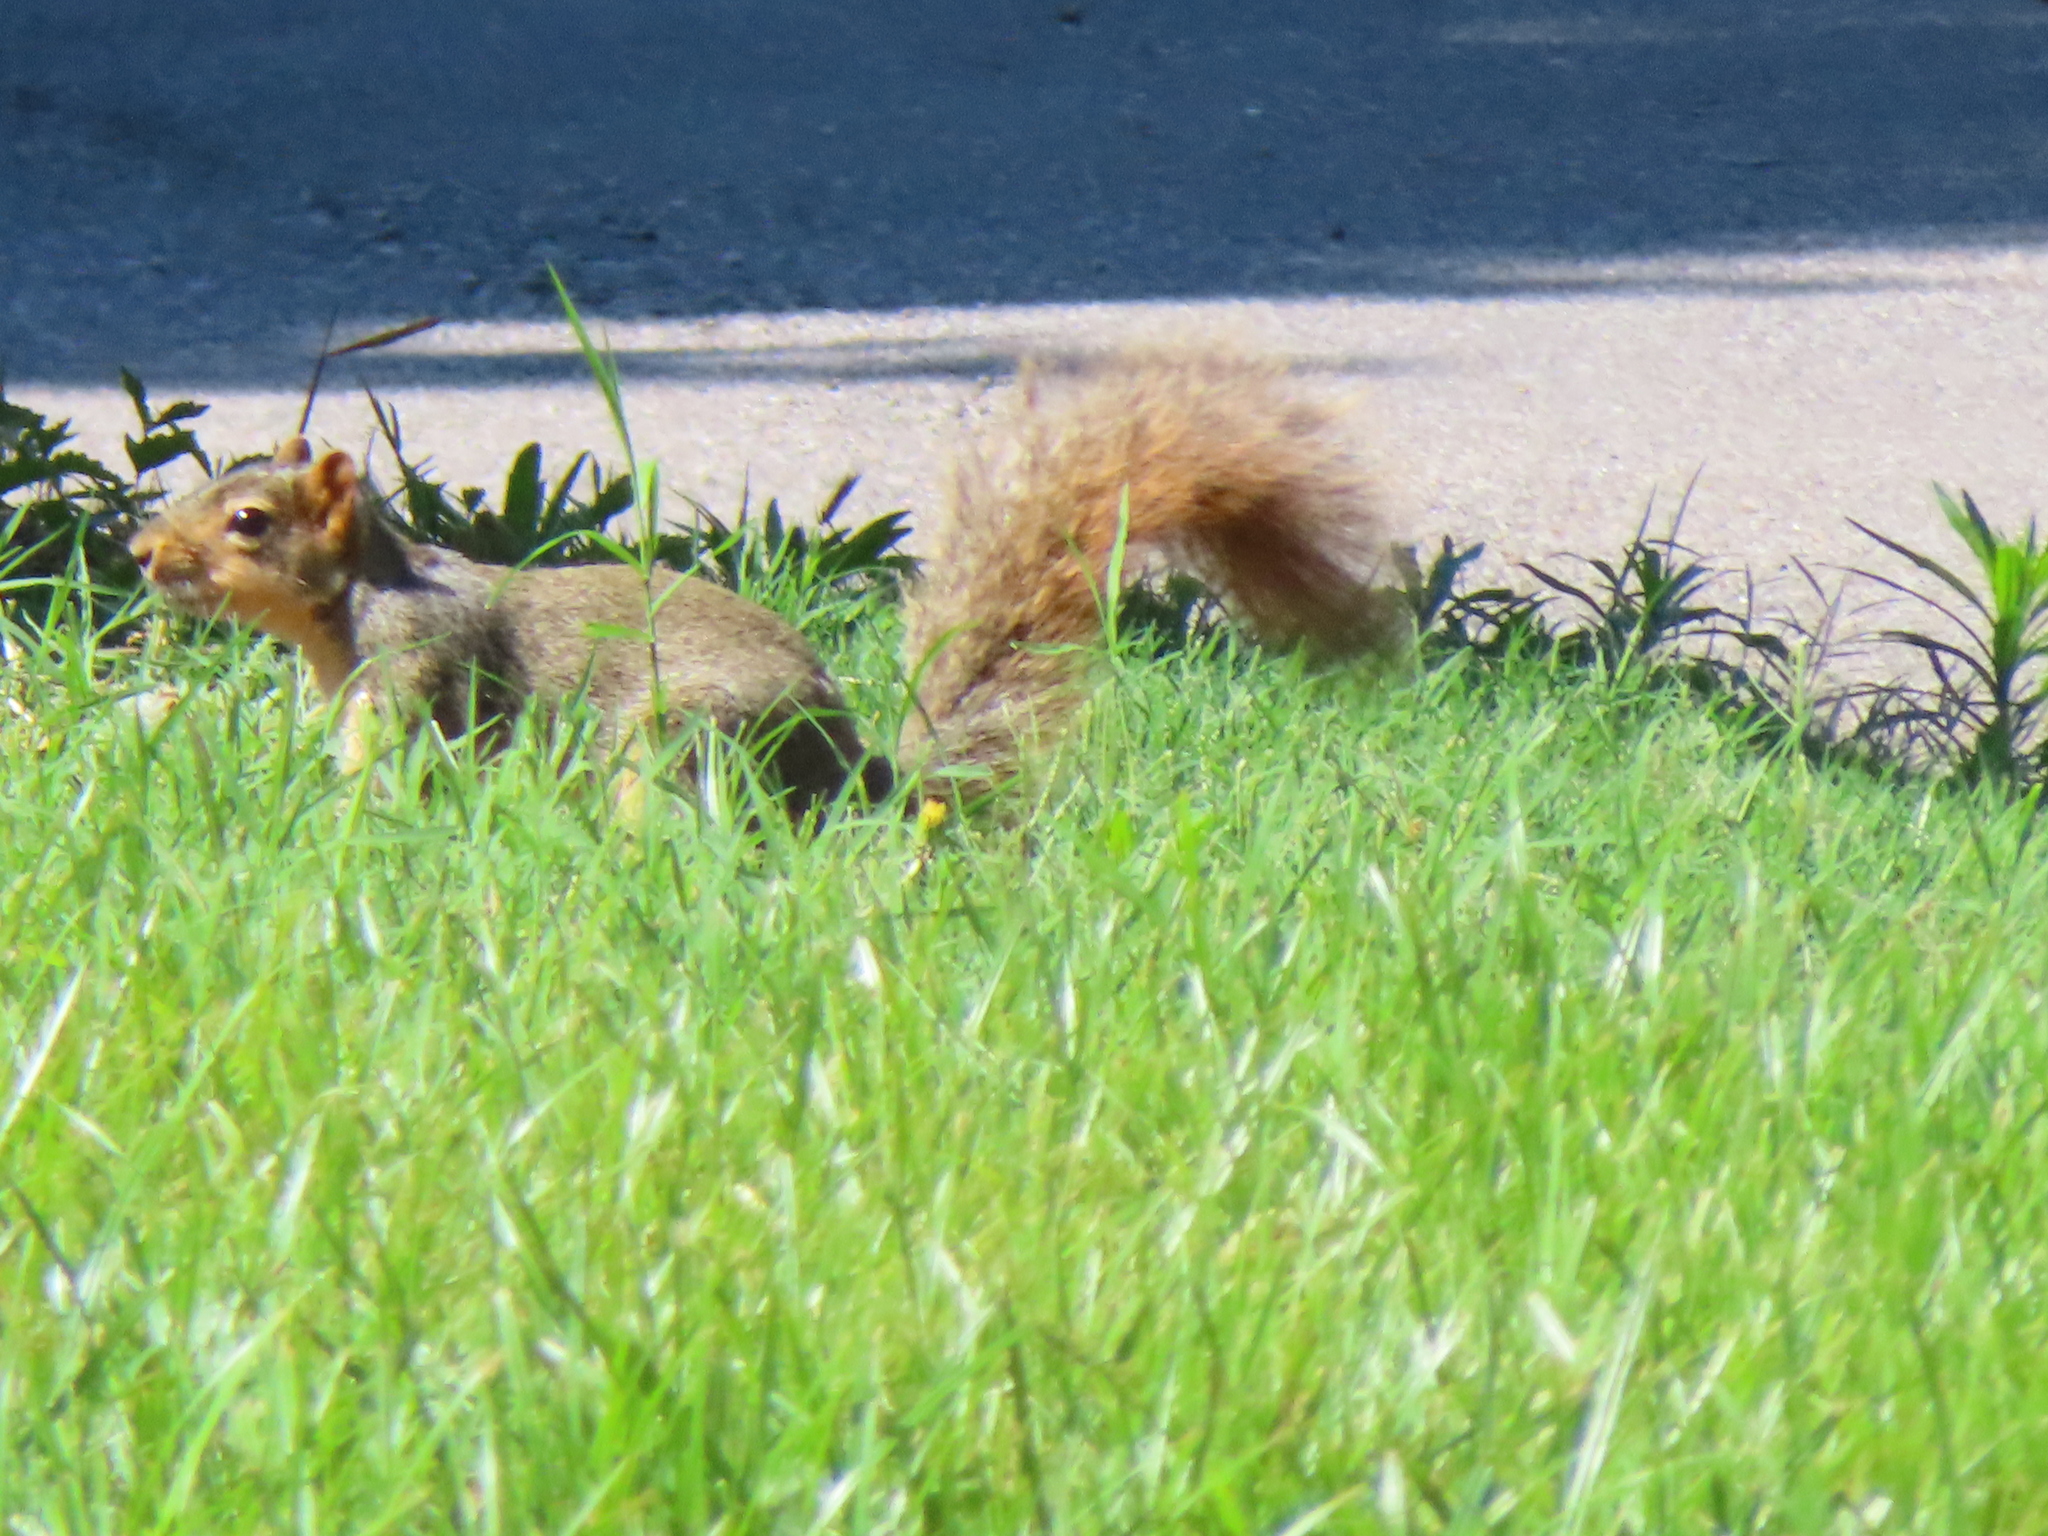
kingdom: Animalia
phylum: Chordata
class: Mammalia
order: Rodentia
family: Sciuridae
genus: Sciurus
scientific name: Sciurus niger
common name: Fox squirrel
